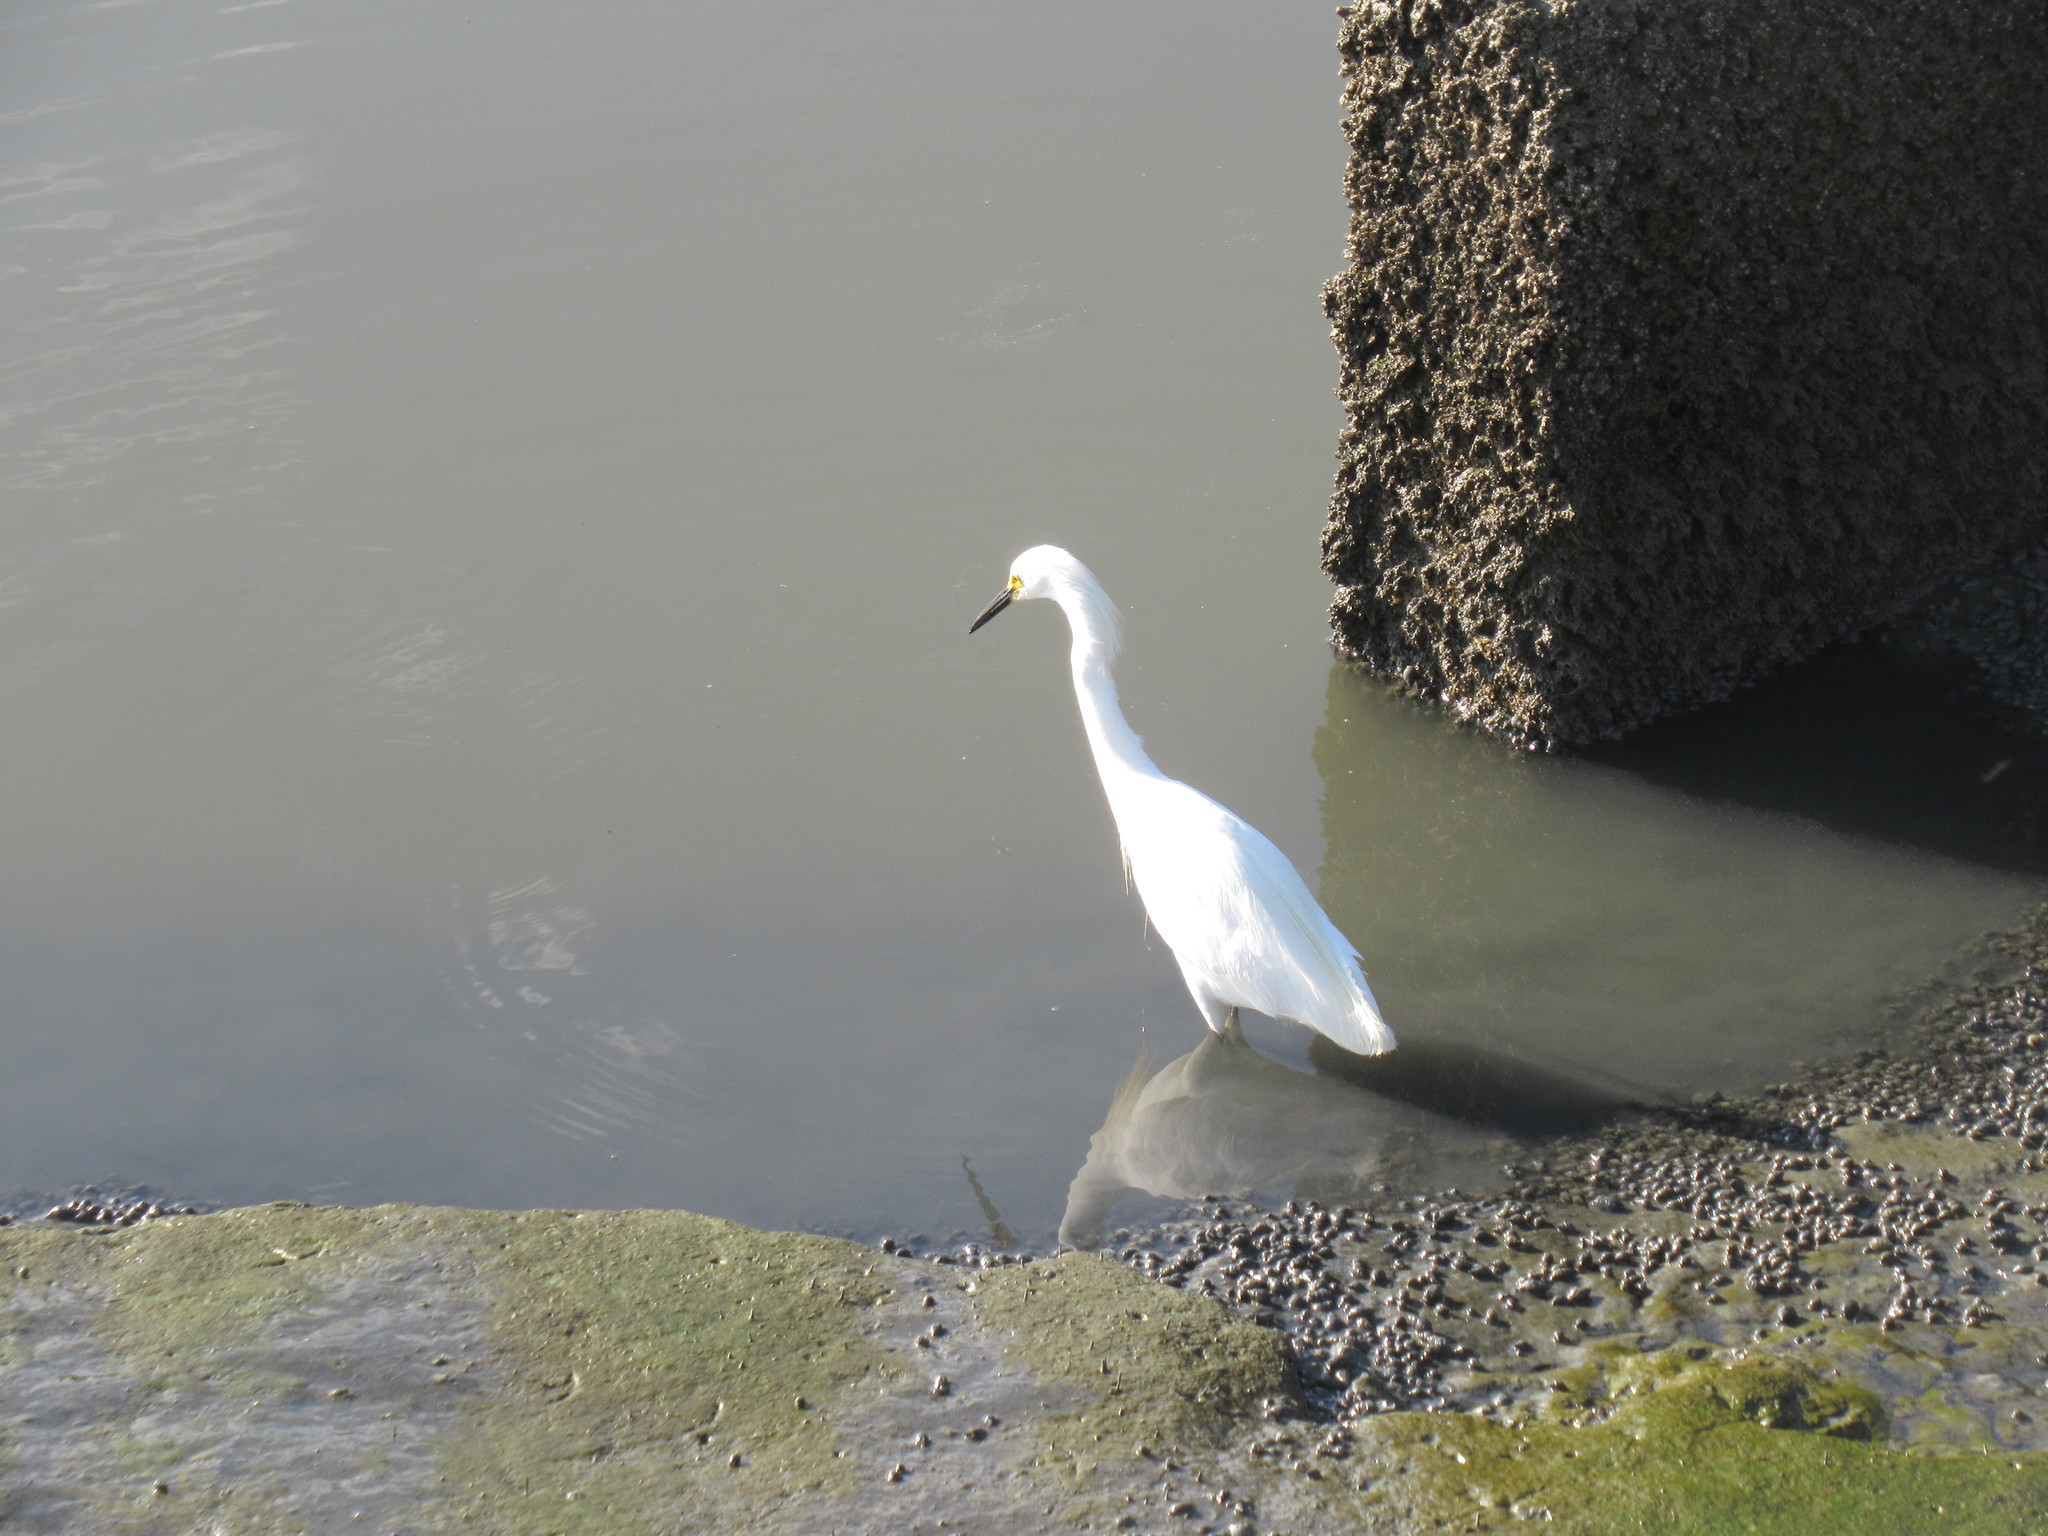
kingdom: Animalia
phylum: Chordata
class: Aves
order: Pelecaniformes
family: Ardeidae
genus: Egretta
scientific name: Egretta thula
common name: Snowy egret
